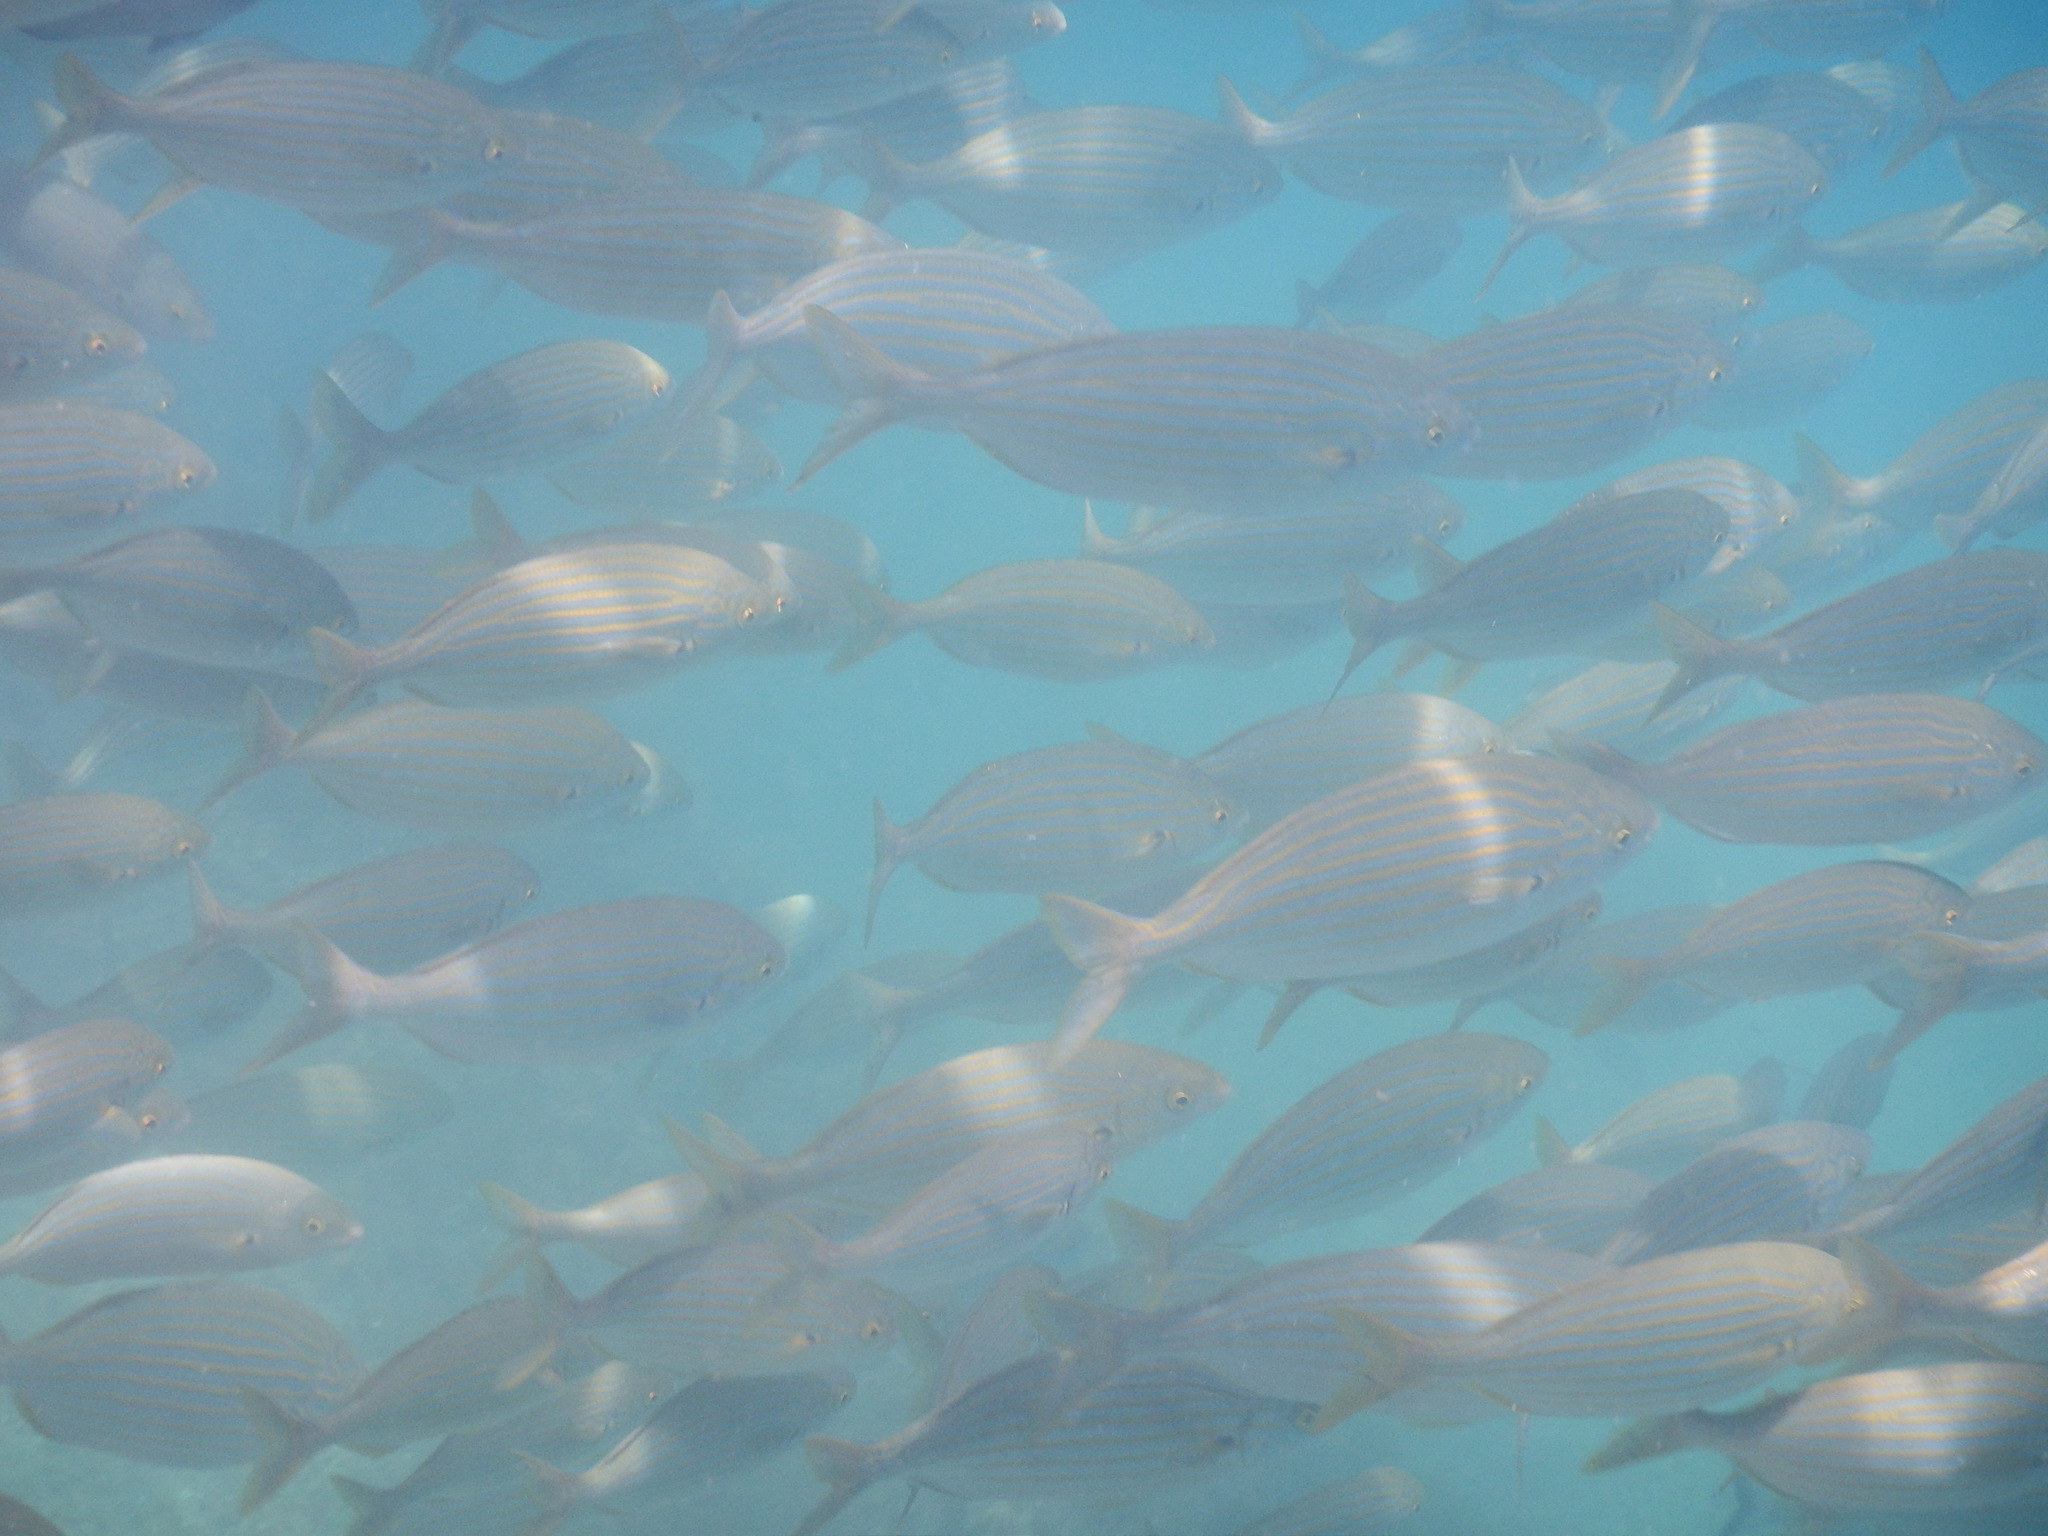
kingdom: Animalia
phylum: Chordata
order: Perciformes
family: Sparidae
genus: Sarpa
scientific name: Sarpa salpa
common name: Salema
